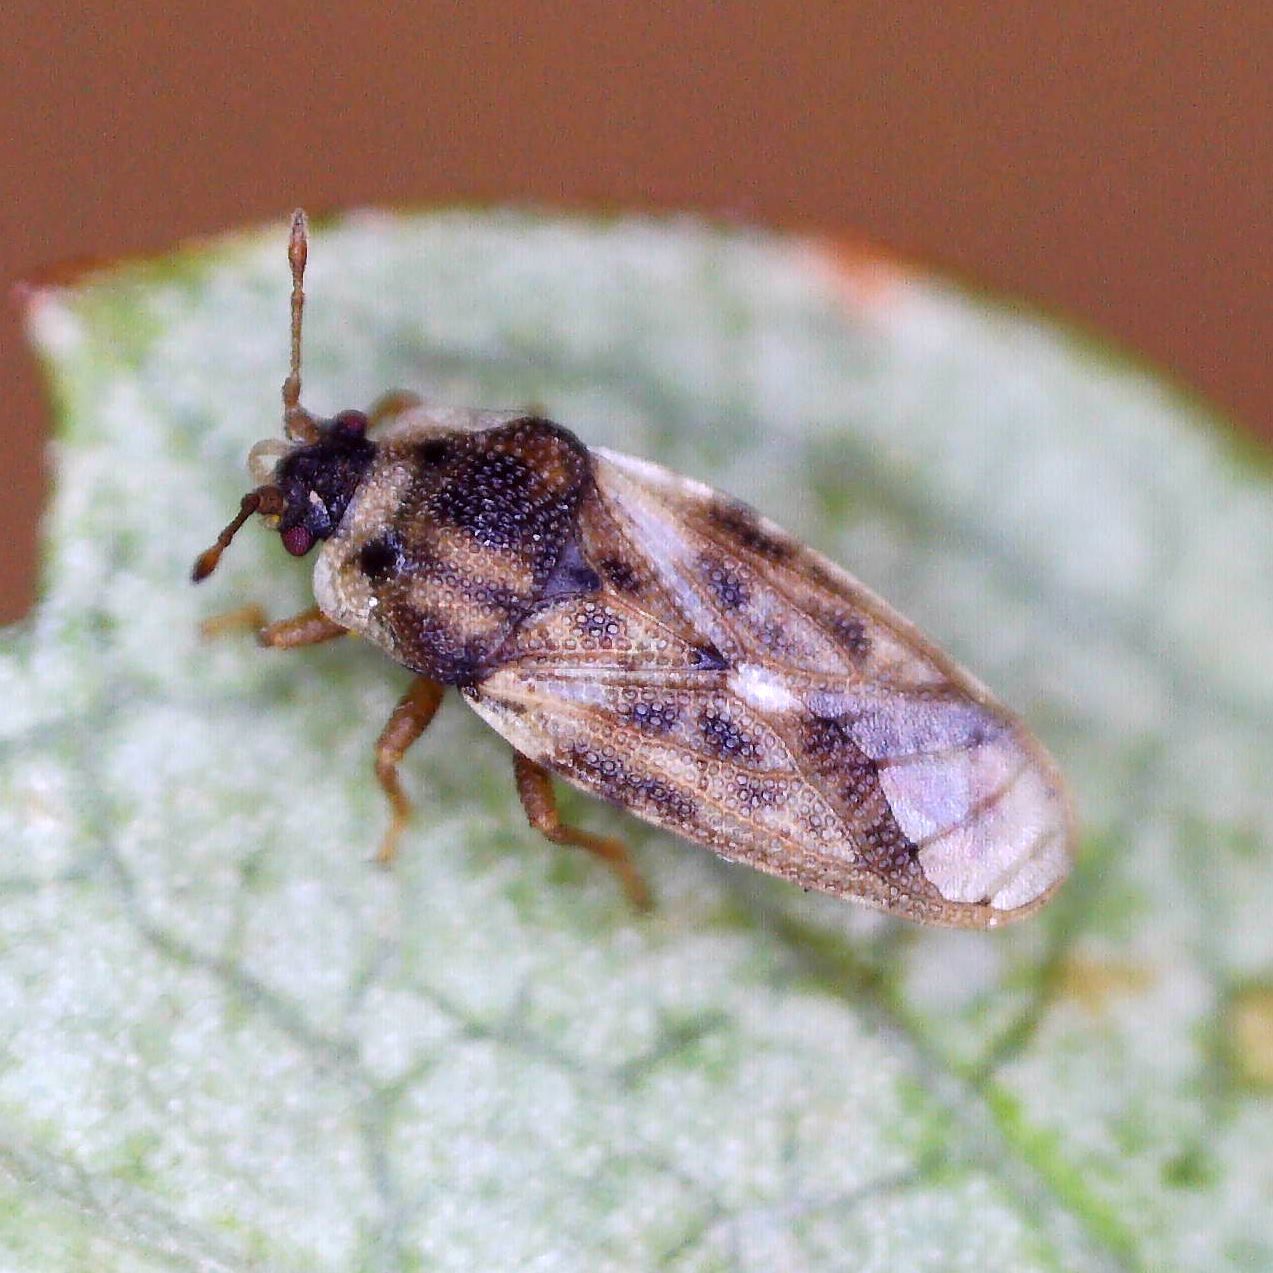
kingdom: Animalia
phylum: Arthropoda
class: Insecta
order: Hemiptera
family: Piesmatidae
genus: Piesma
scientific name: Piesma maculata
